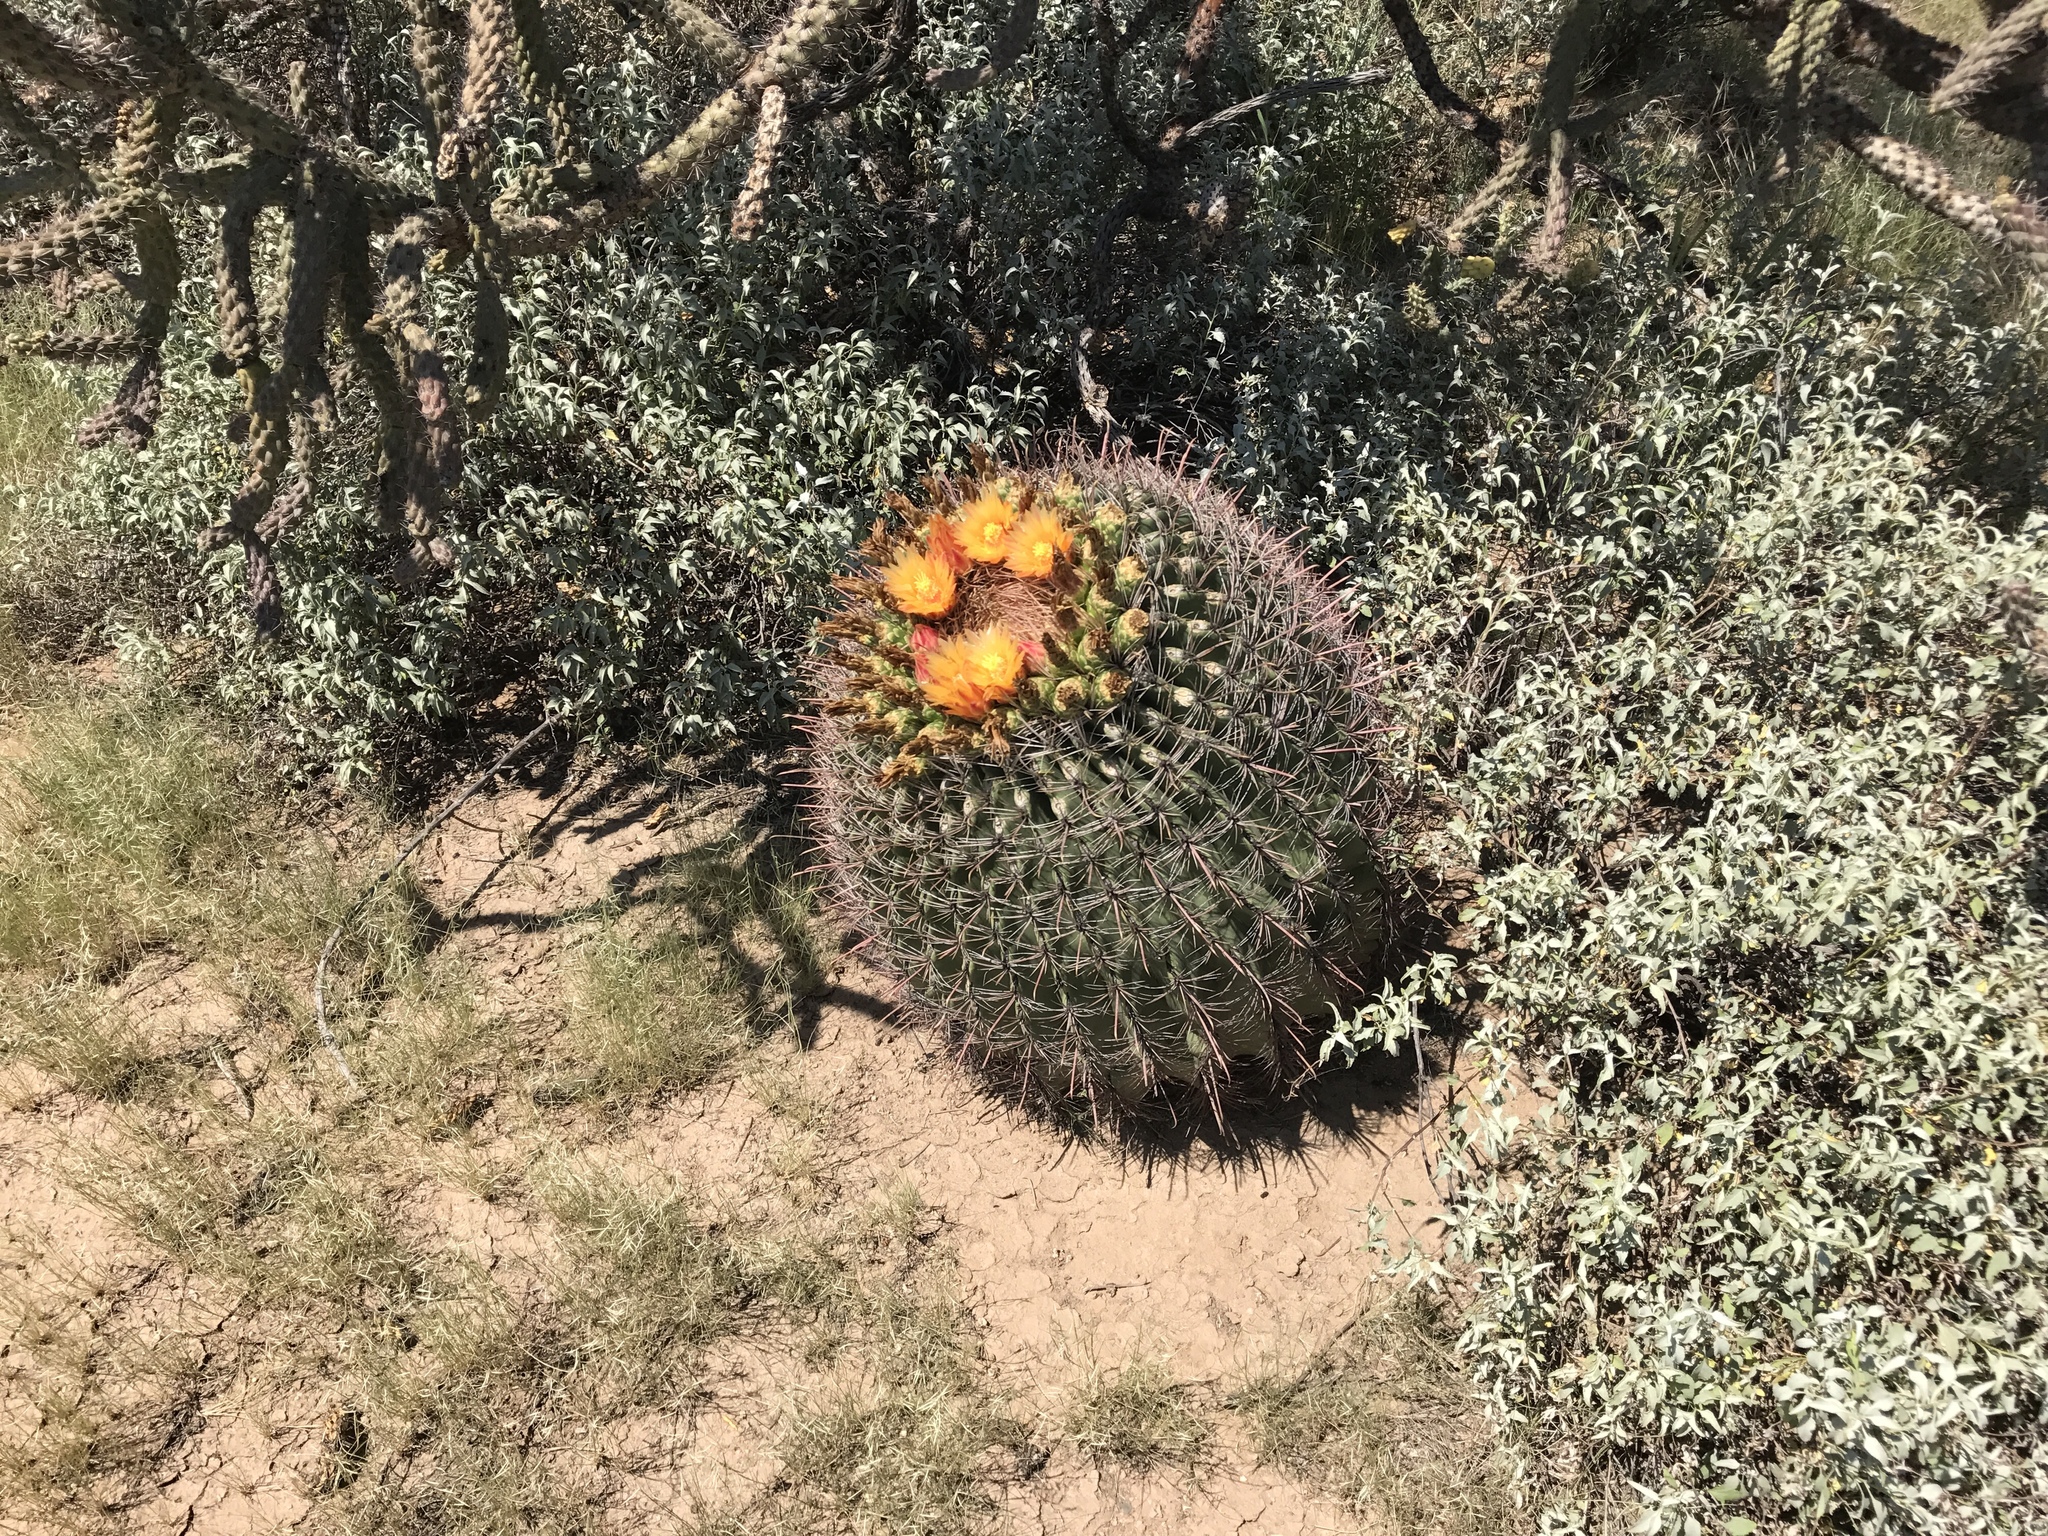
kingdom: Plantae
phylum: Tracheophyta
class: Magnoliopsida
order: Caryophyllales
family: Cactaceae
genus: Ferocactus
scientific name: Ferocactus wislizeni
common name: Candy barrel cactus
